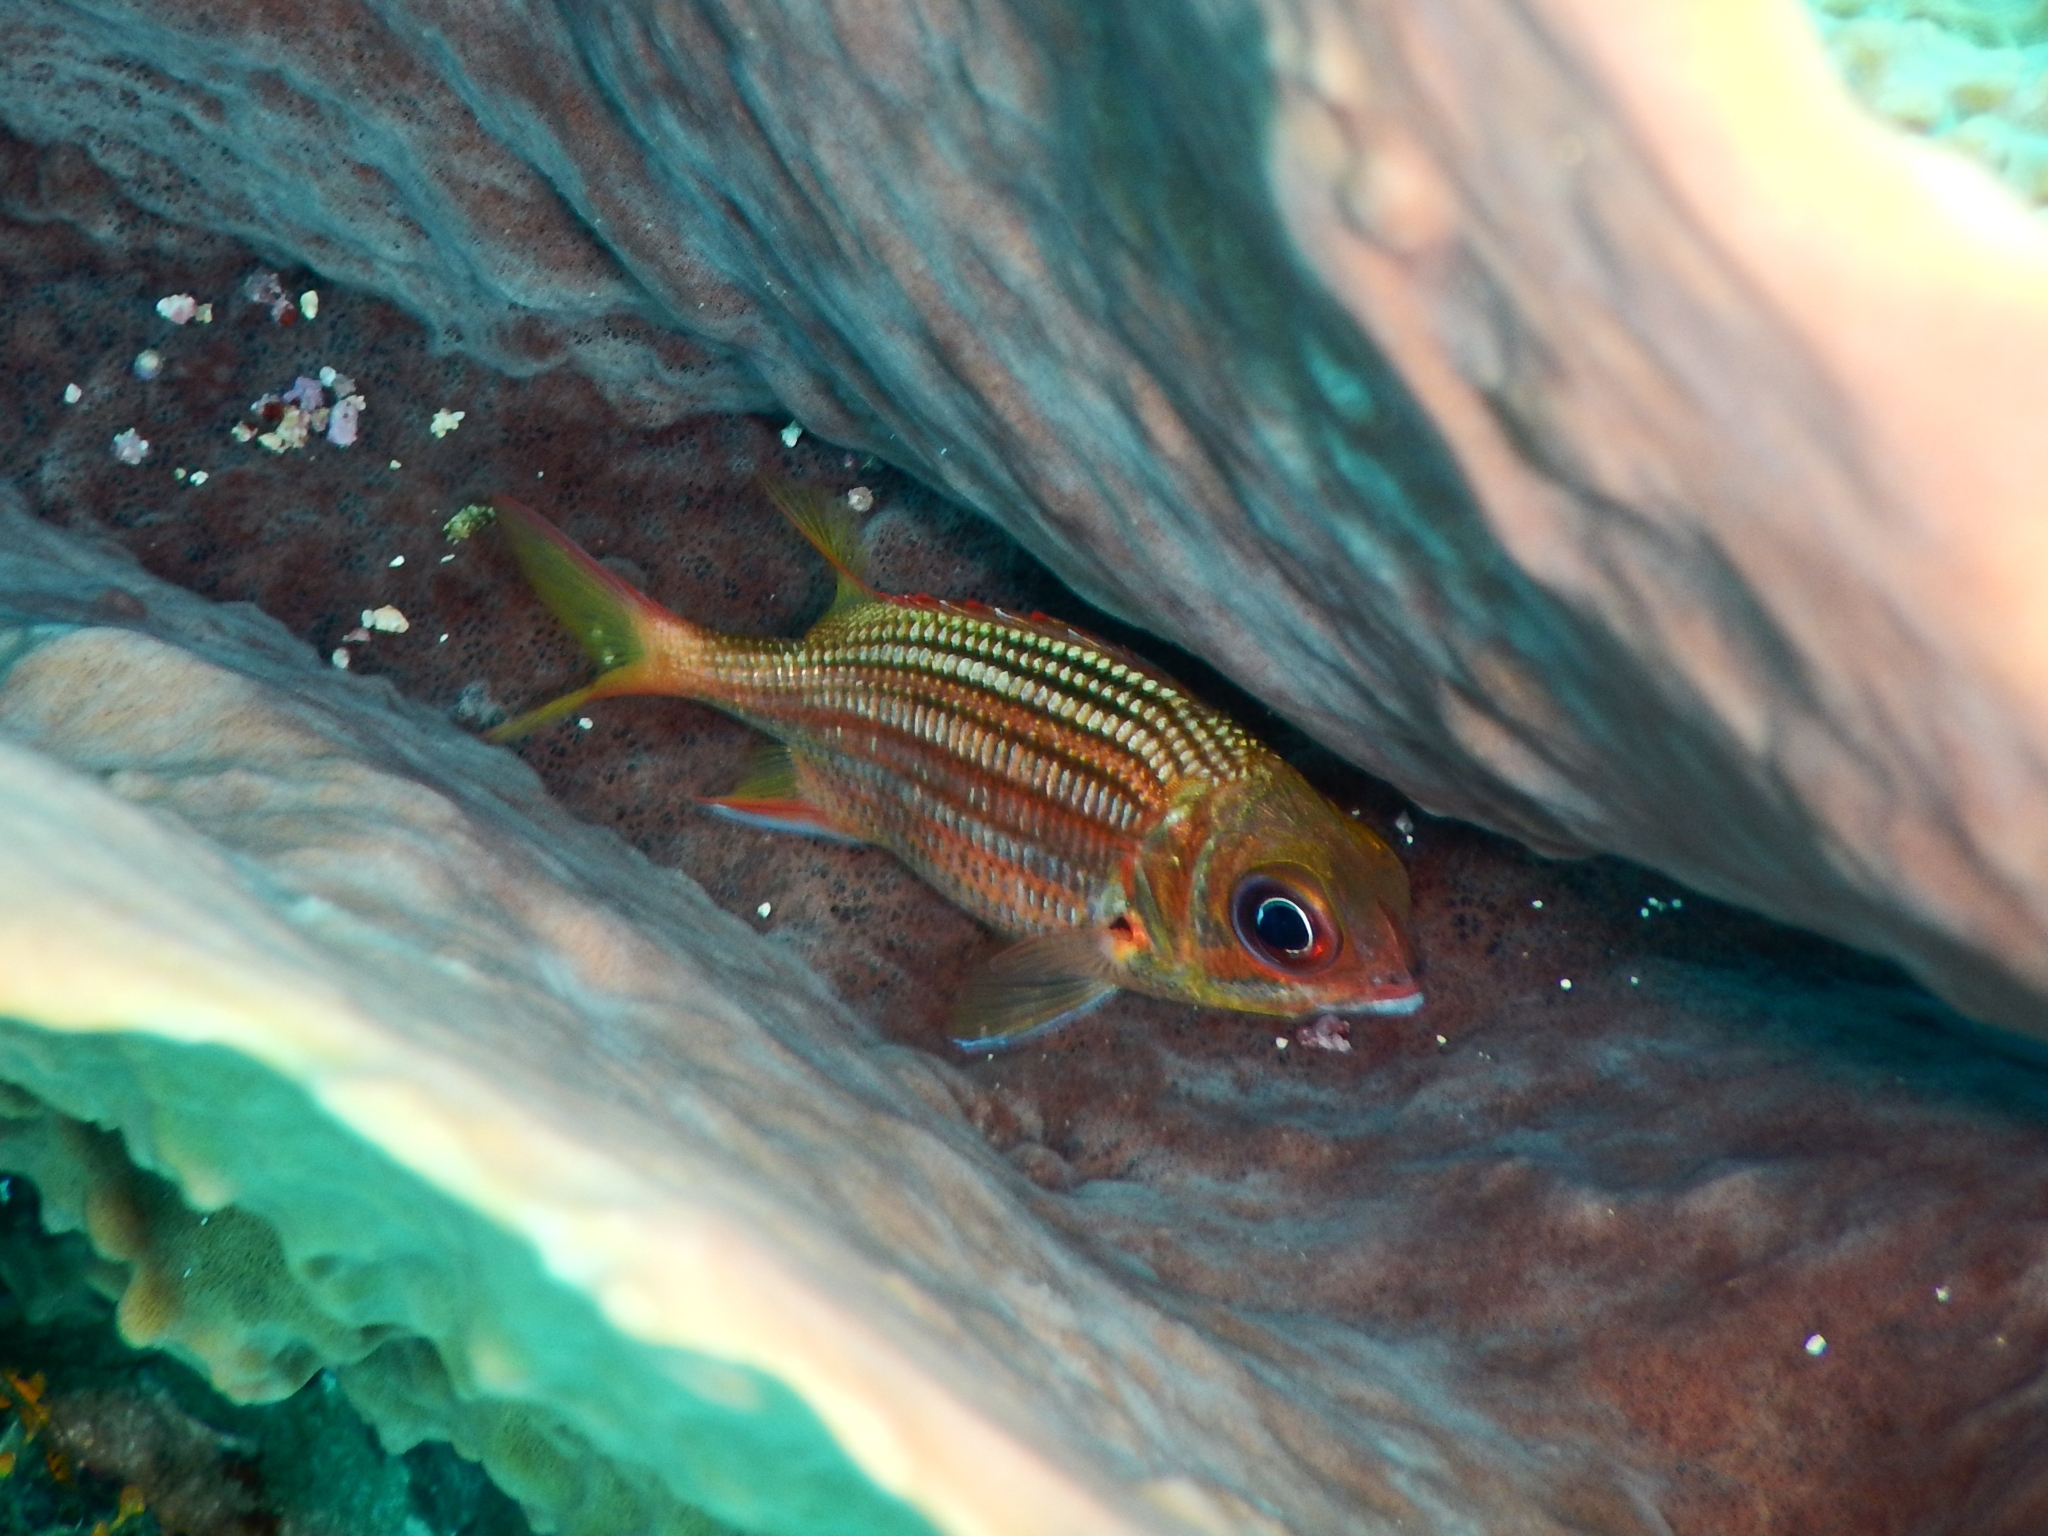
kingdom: Animalia
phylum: Chordata
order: Beryciformes
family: Holocentridae
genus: Neoniphon
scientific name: Neoniphon vexillarium
